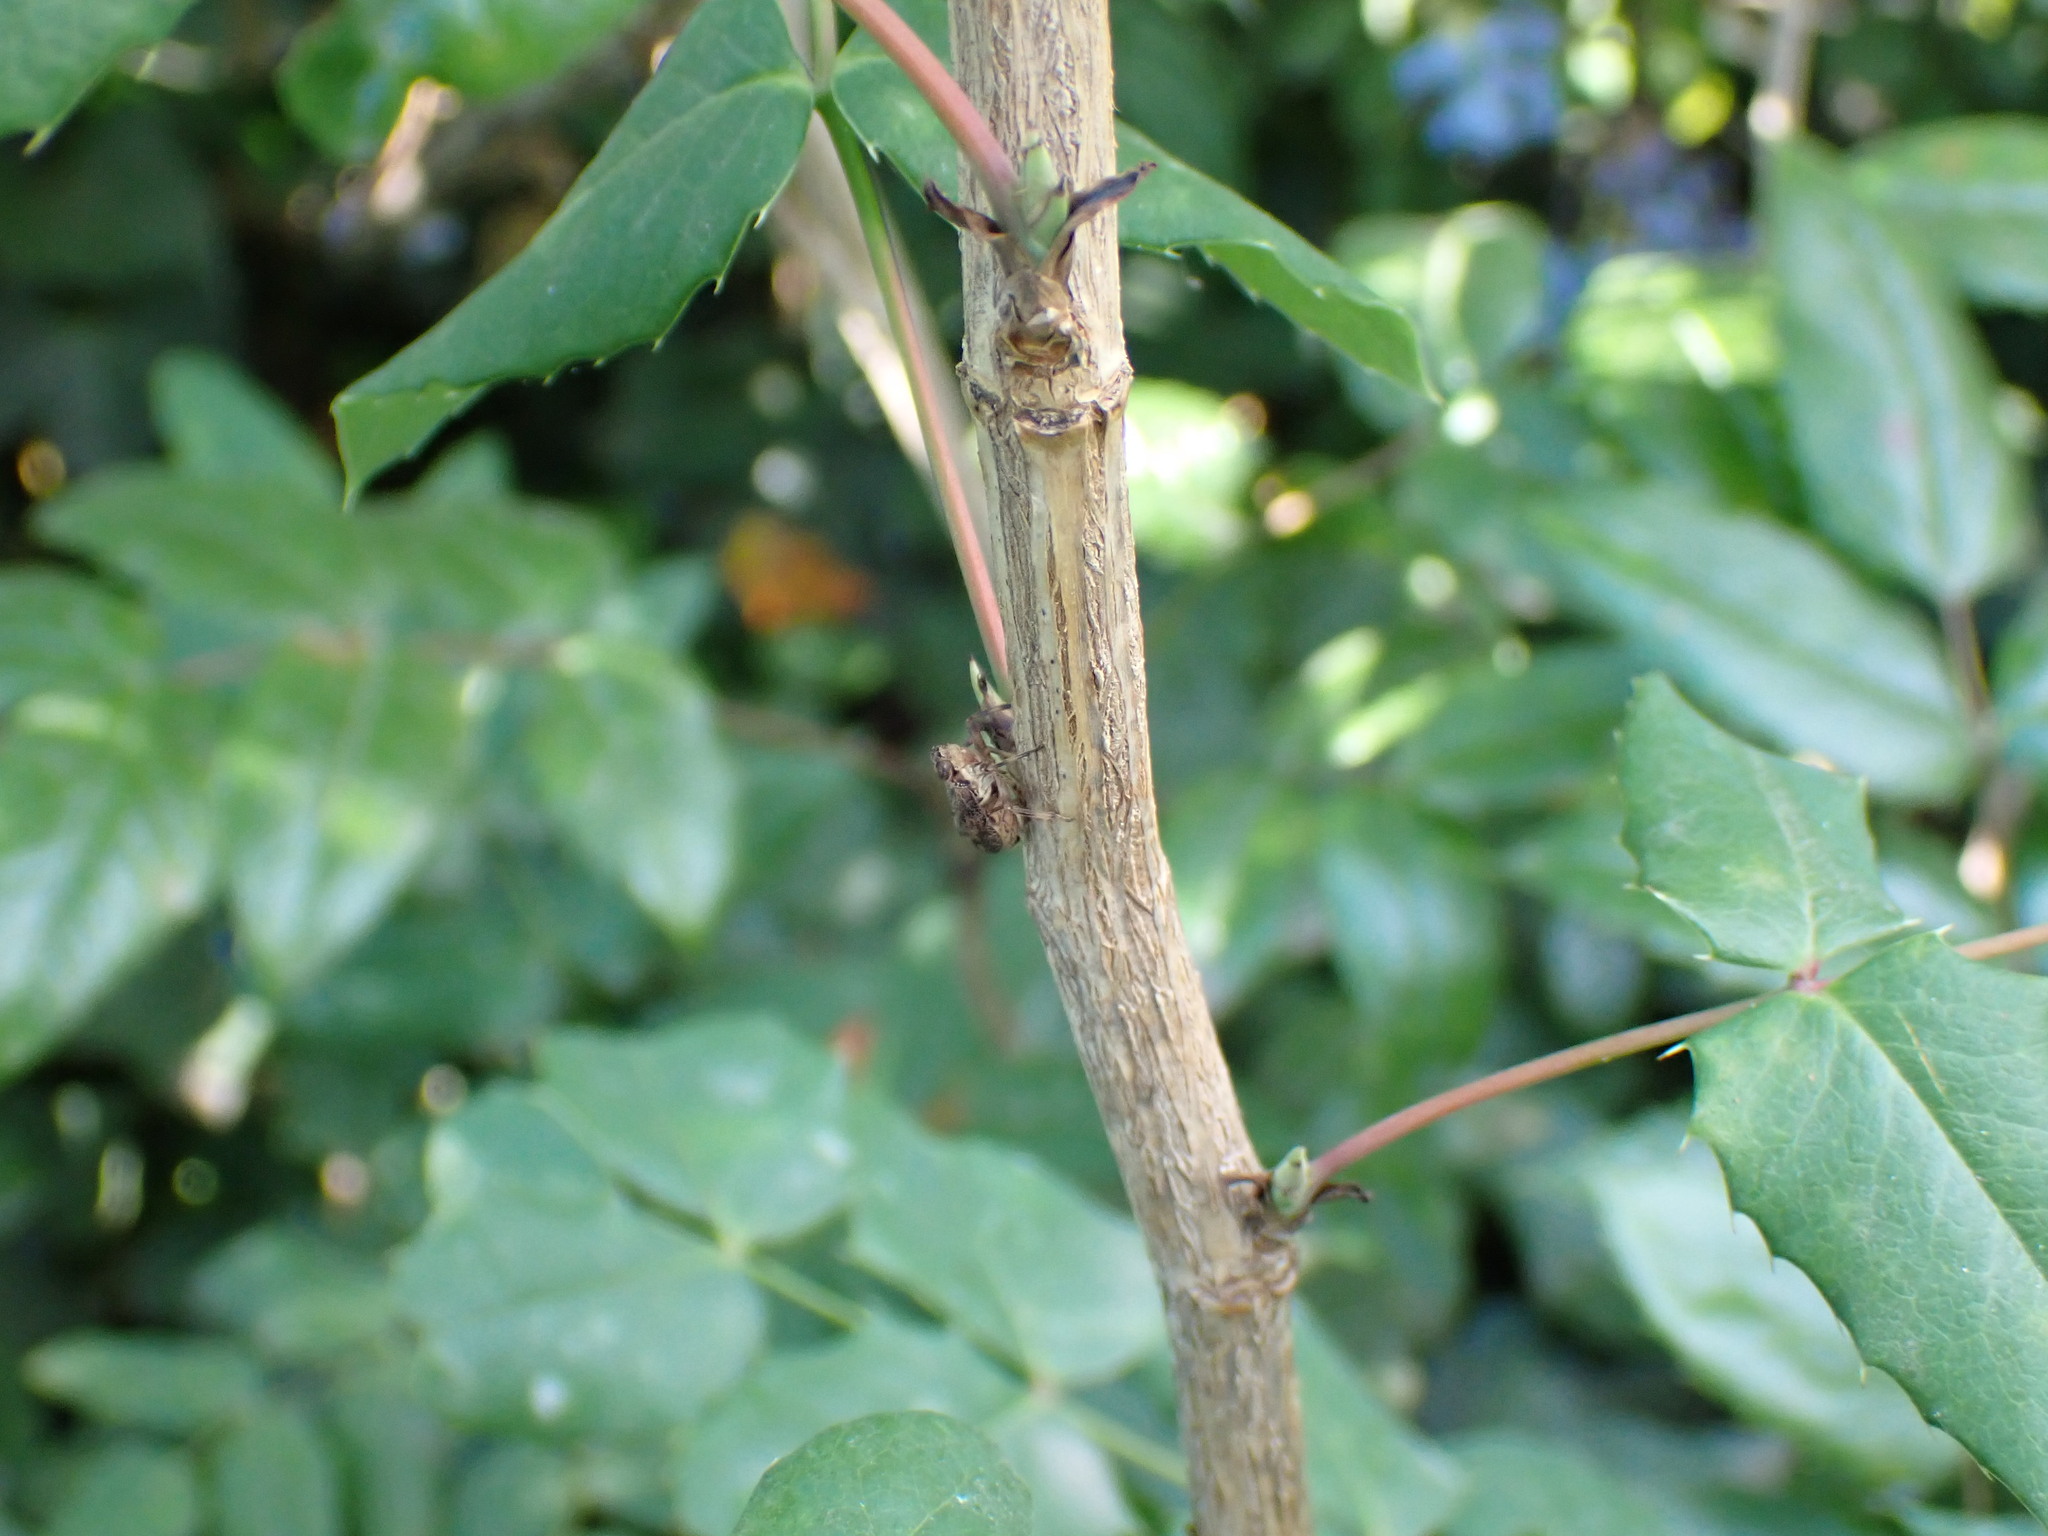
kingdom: Animalia
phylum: Arthropoda
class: Insecta
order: Hemiptera
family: Issidae
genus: Issus
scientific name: Issus coleoptratus
